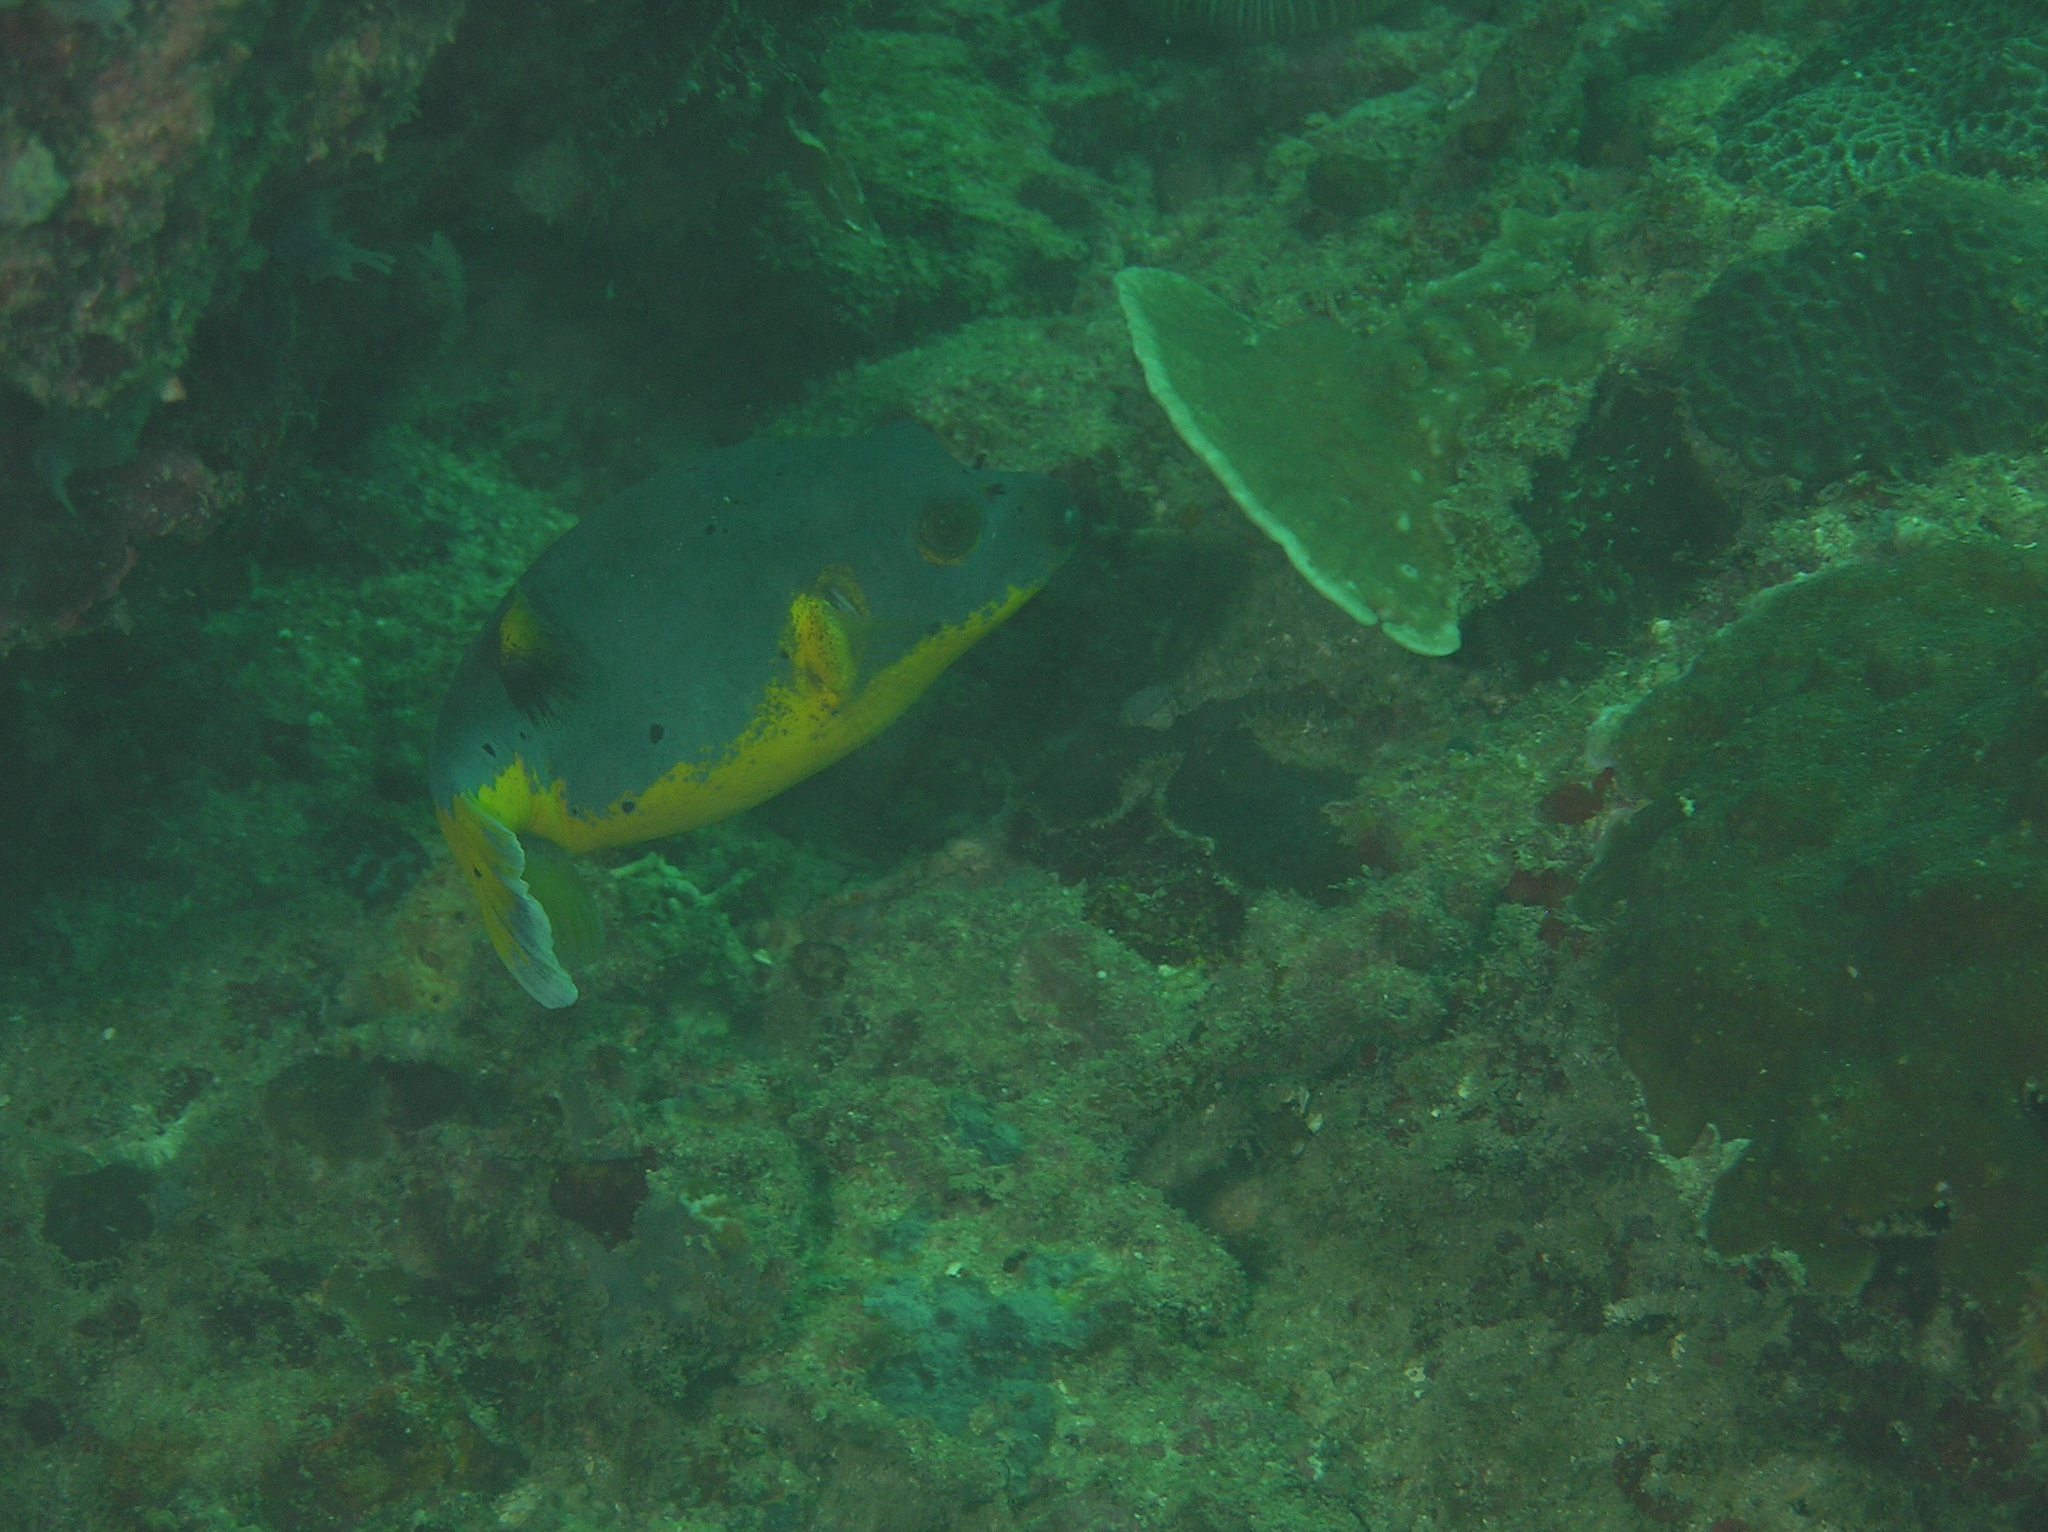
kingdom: Animalia
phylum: Chordata
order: Tetraodontiformes
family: Tetraodontidae
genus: Arothron
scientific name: Arothron nigropunctatus
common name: Black spotted blow fish
